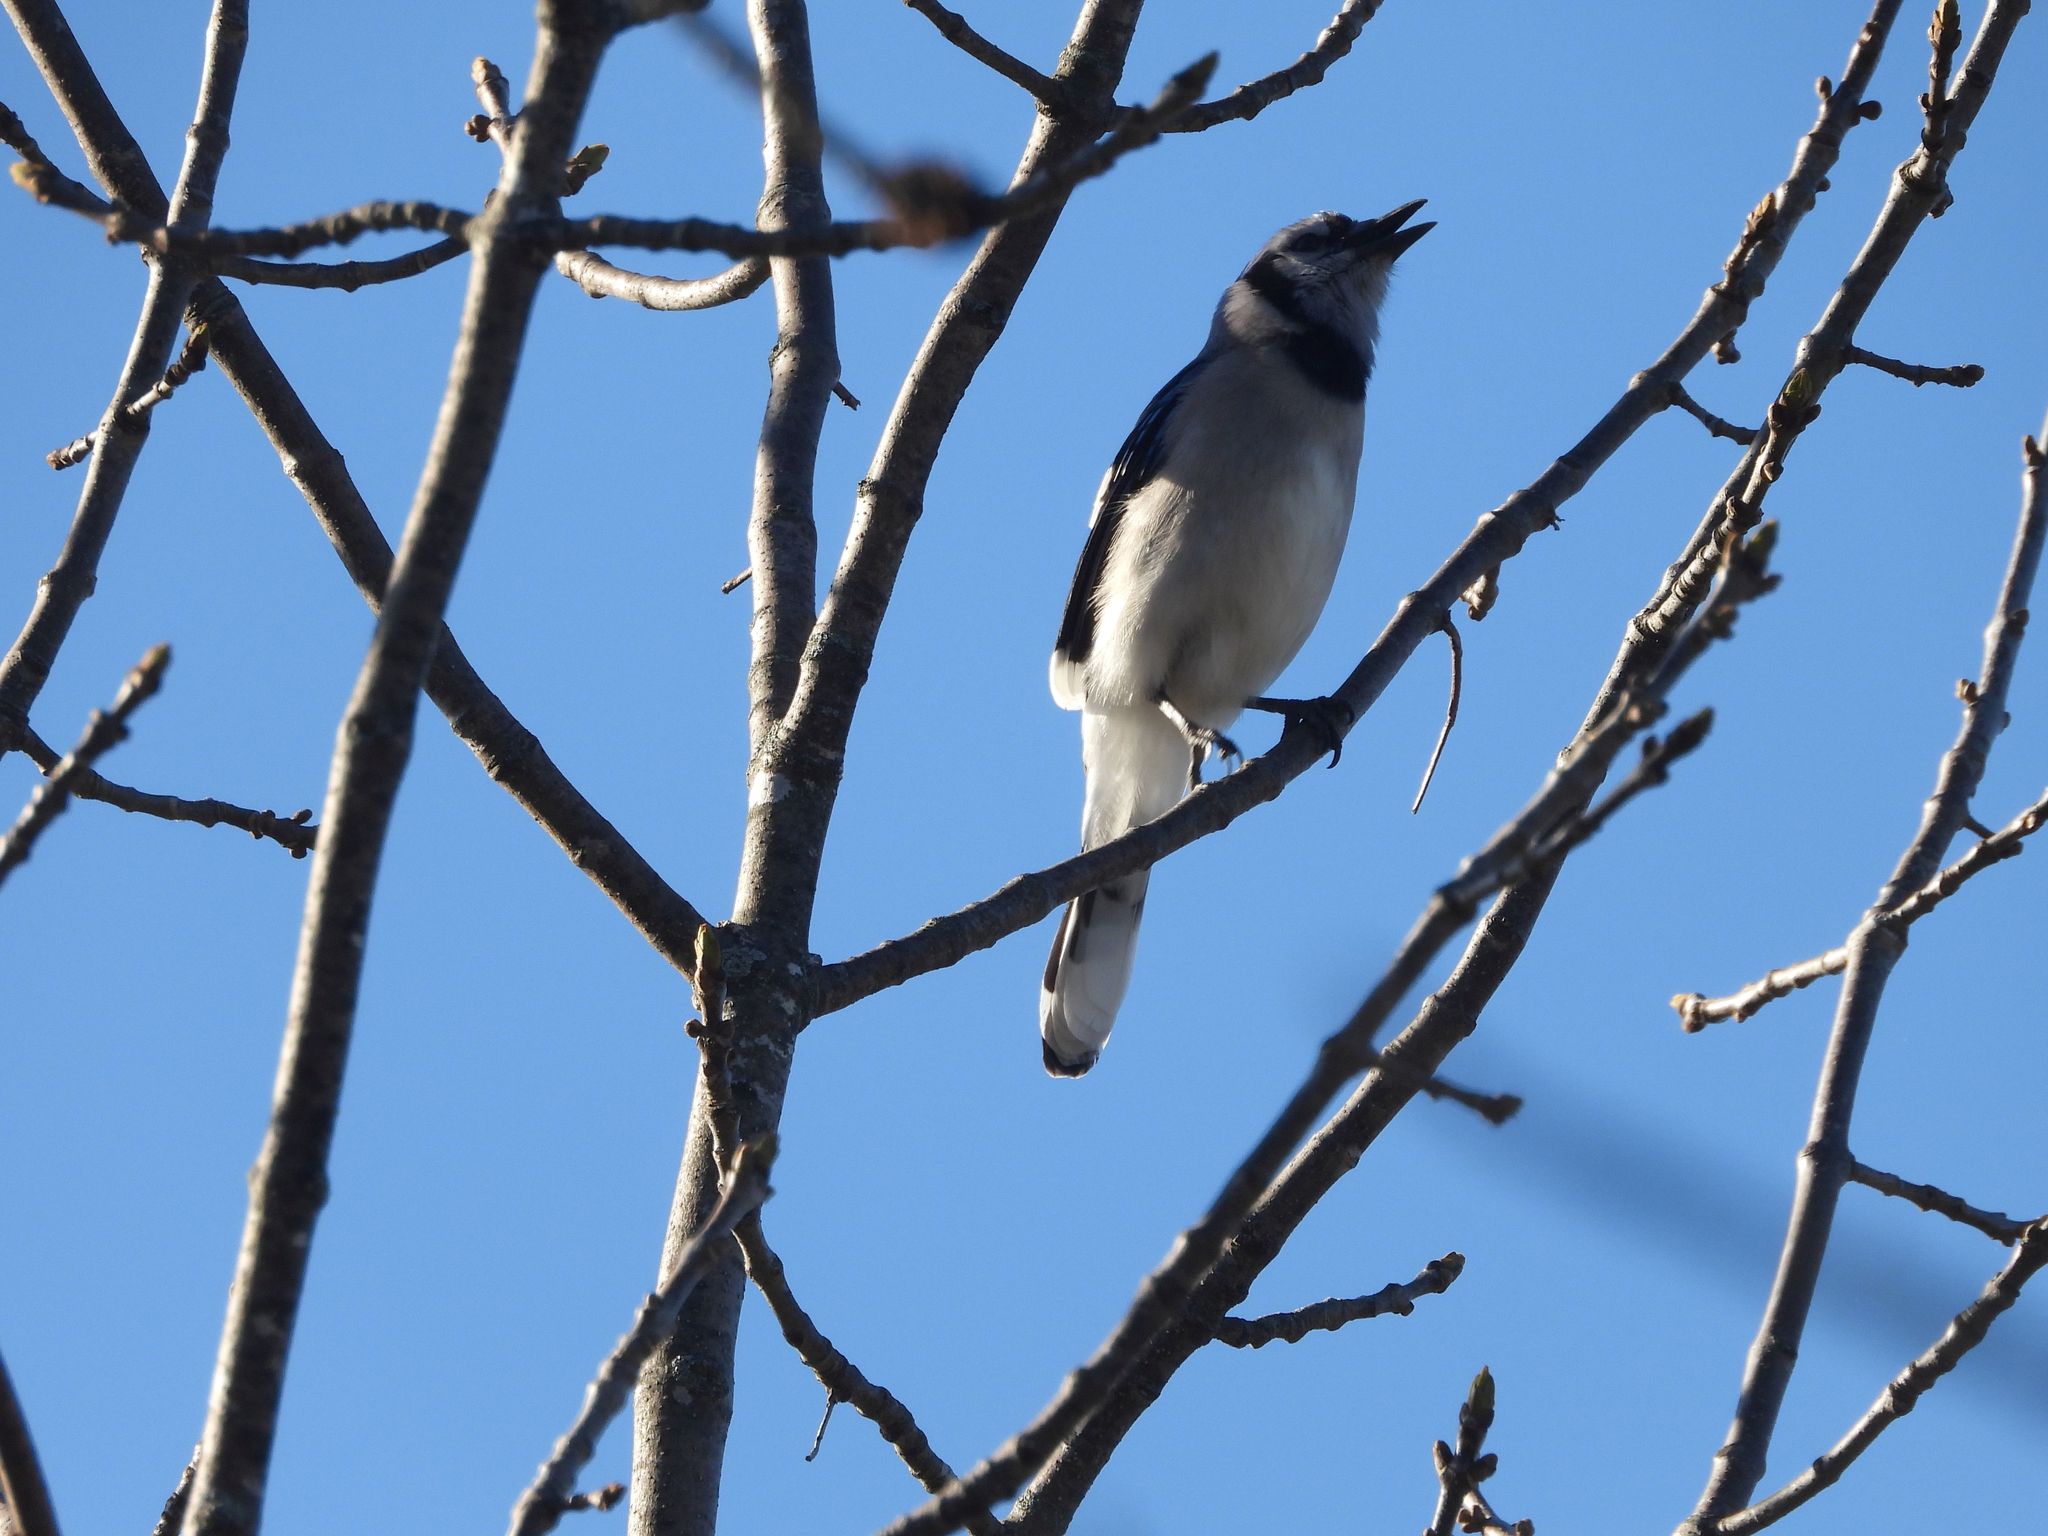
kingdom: Animalia
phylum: Chordata
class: Aves
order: Passeriformes
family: Corvidae
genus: Cyanocitta
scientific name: Cyanocitta cristata
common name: Blue jay
